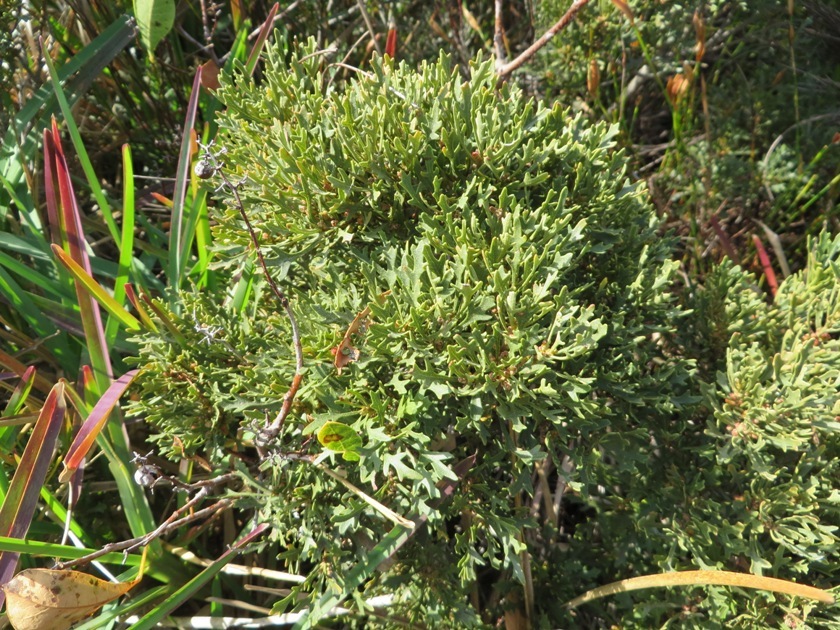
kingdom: Plantae
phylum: Tracheophyta
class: Magnoliopsida
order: Fagales
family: Myricaceae
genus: Morella
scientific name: Morella quercifolia
